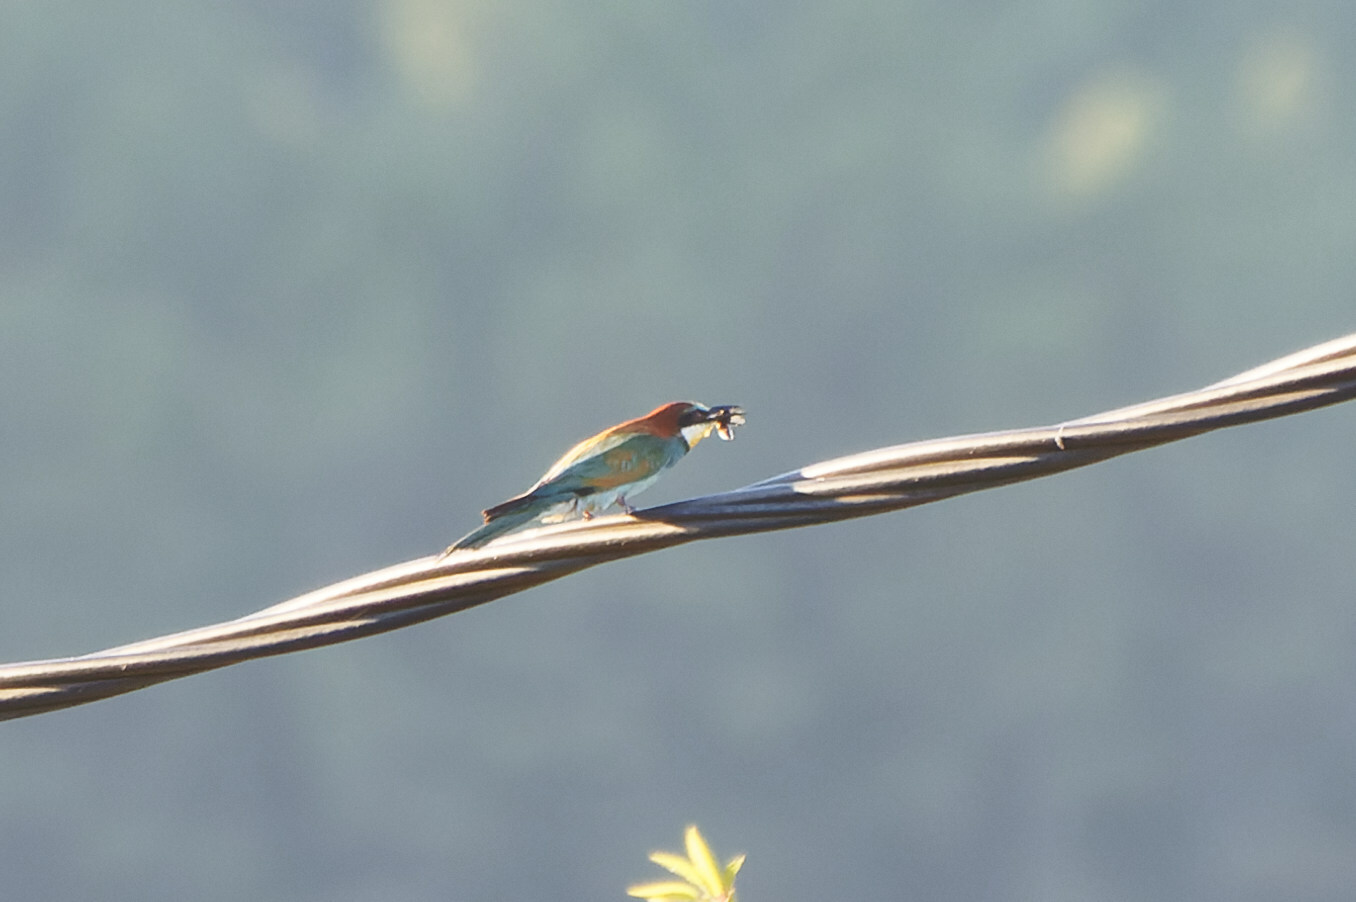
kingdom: Animalia
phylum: Chordata
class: Aves
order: Coraciiformes
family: Meropidae
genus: Merops
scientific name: Merops apiaster
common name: European bee-eater
